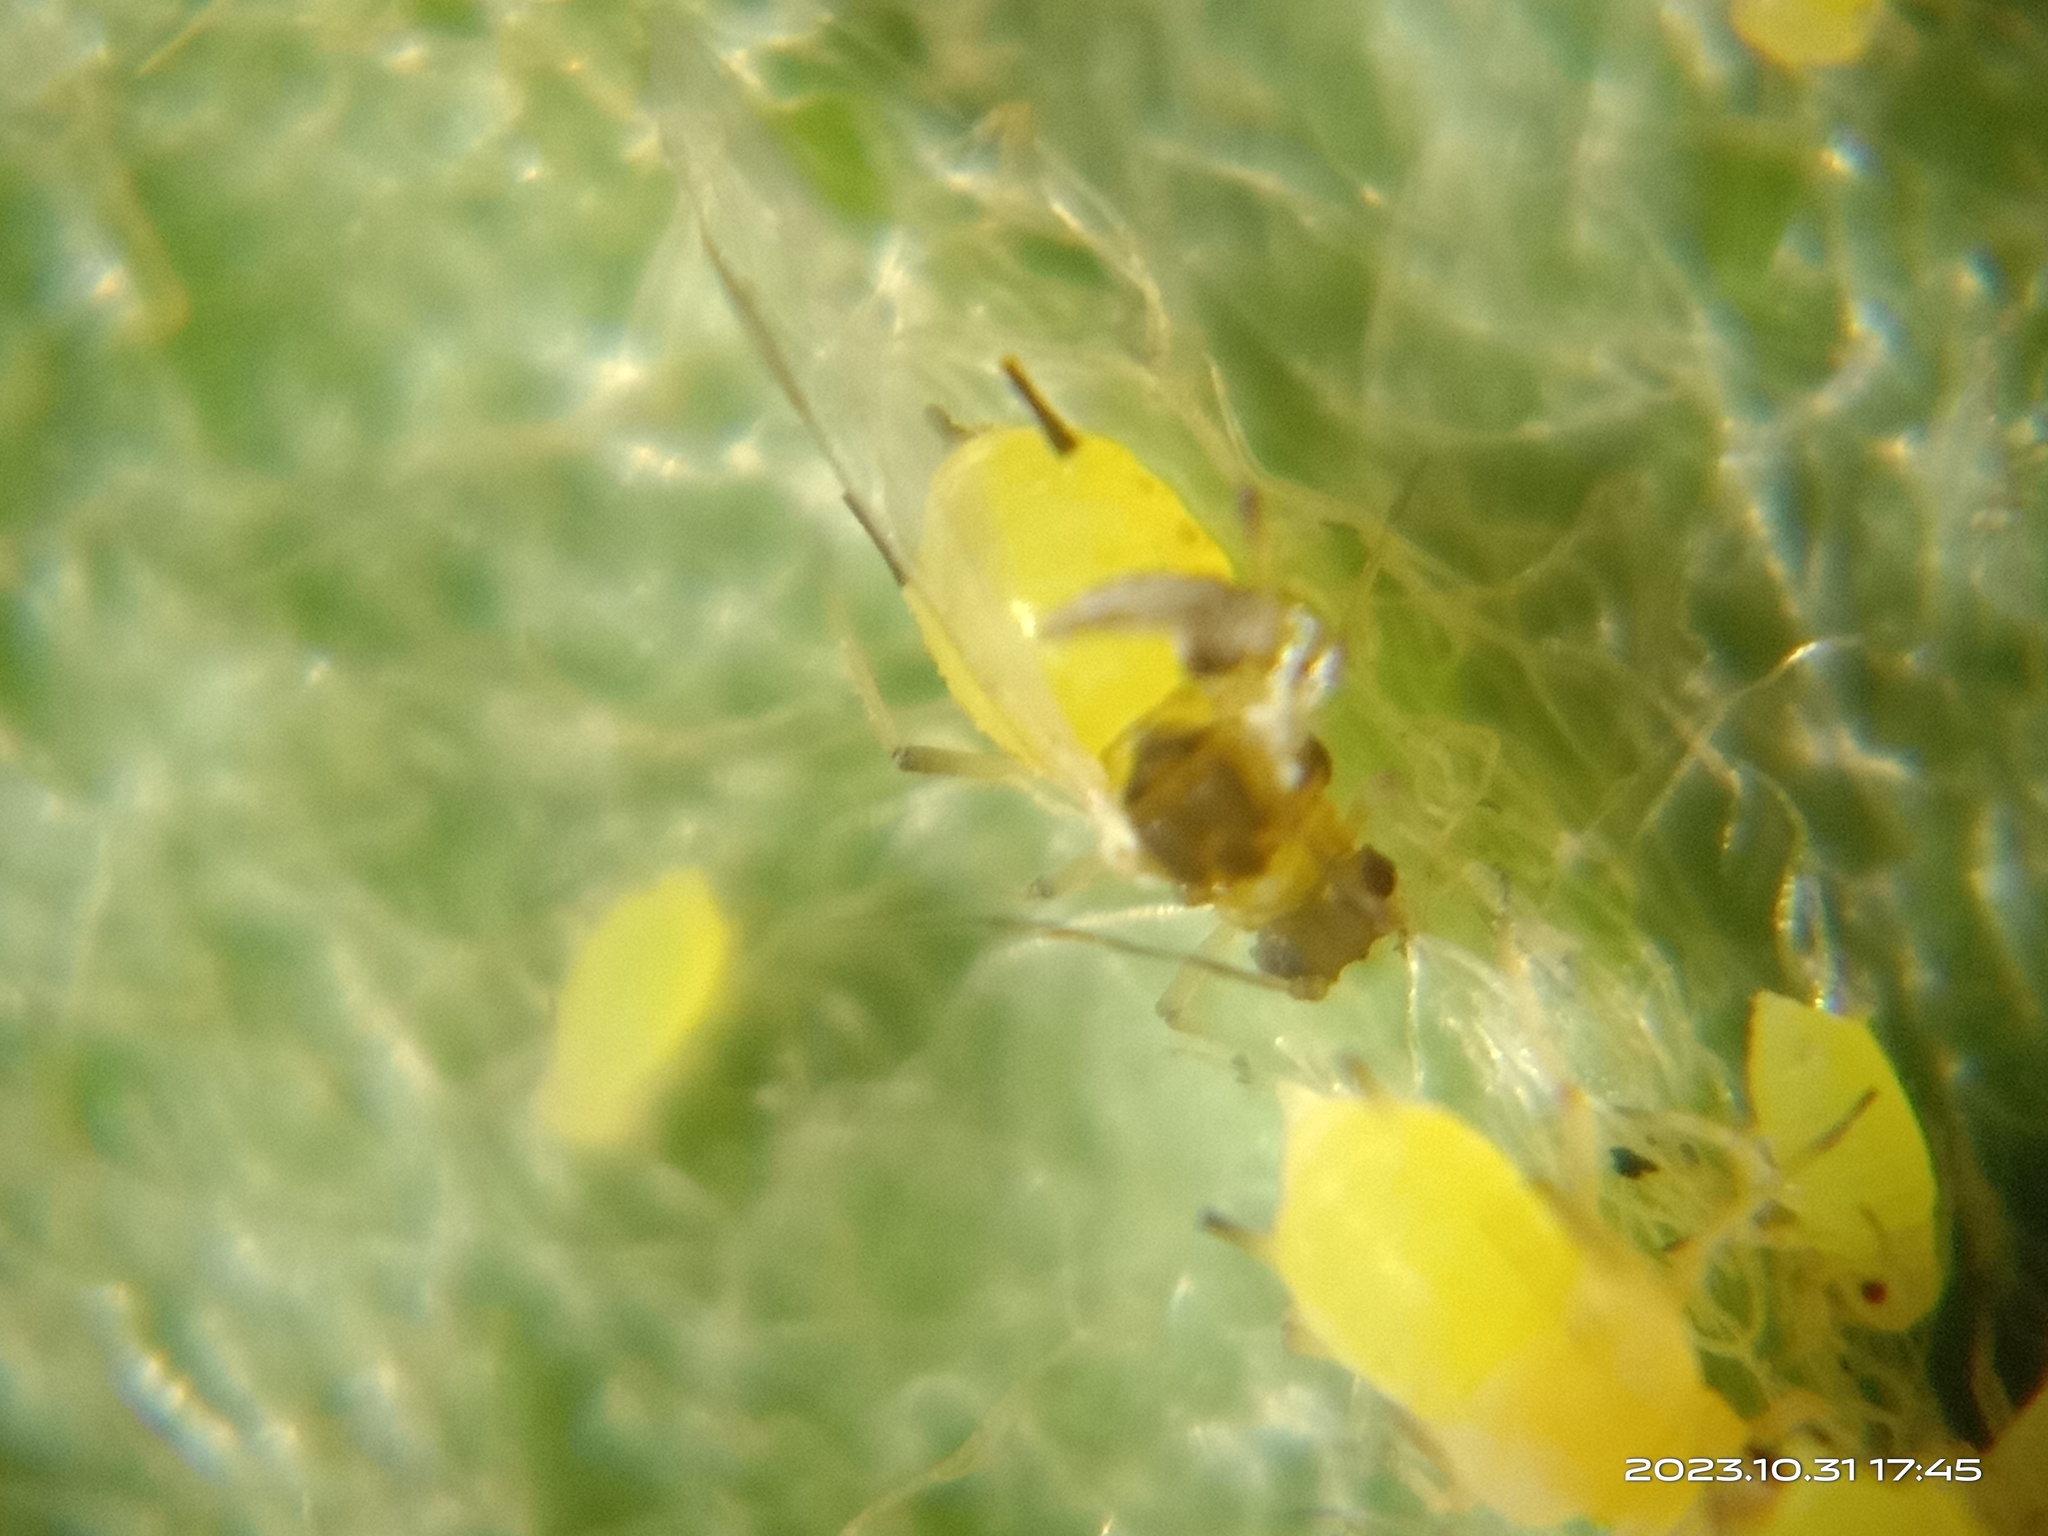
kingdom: Animalia
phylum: Arthropoda
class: Insecta
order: Hemiptera
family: Aphididae
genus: Aphis
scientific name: Aphis spiraecola
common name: Spirea aphid
